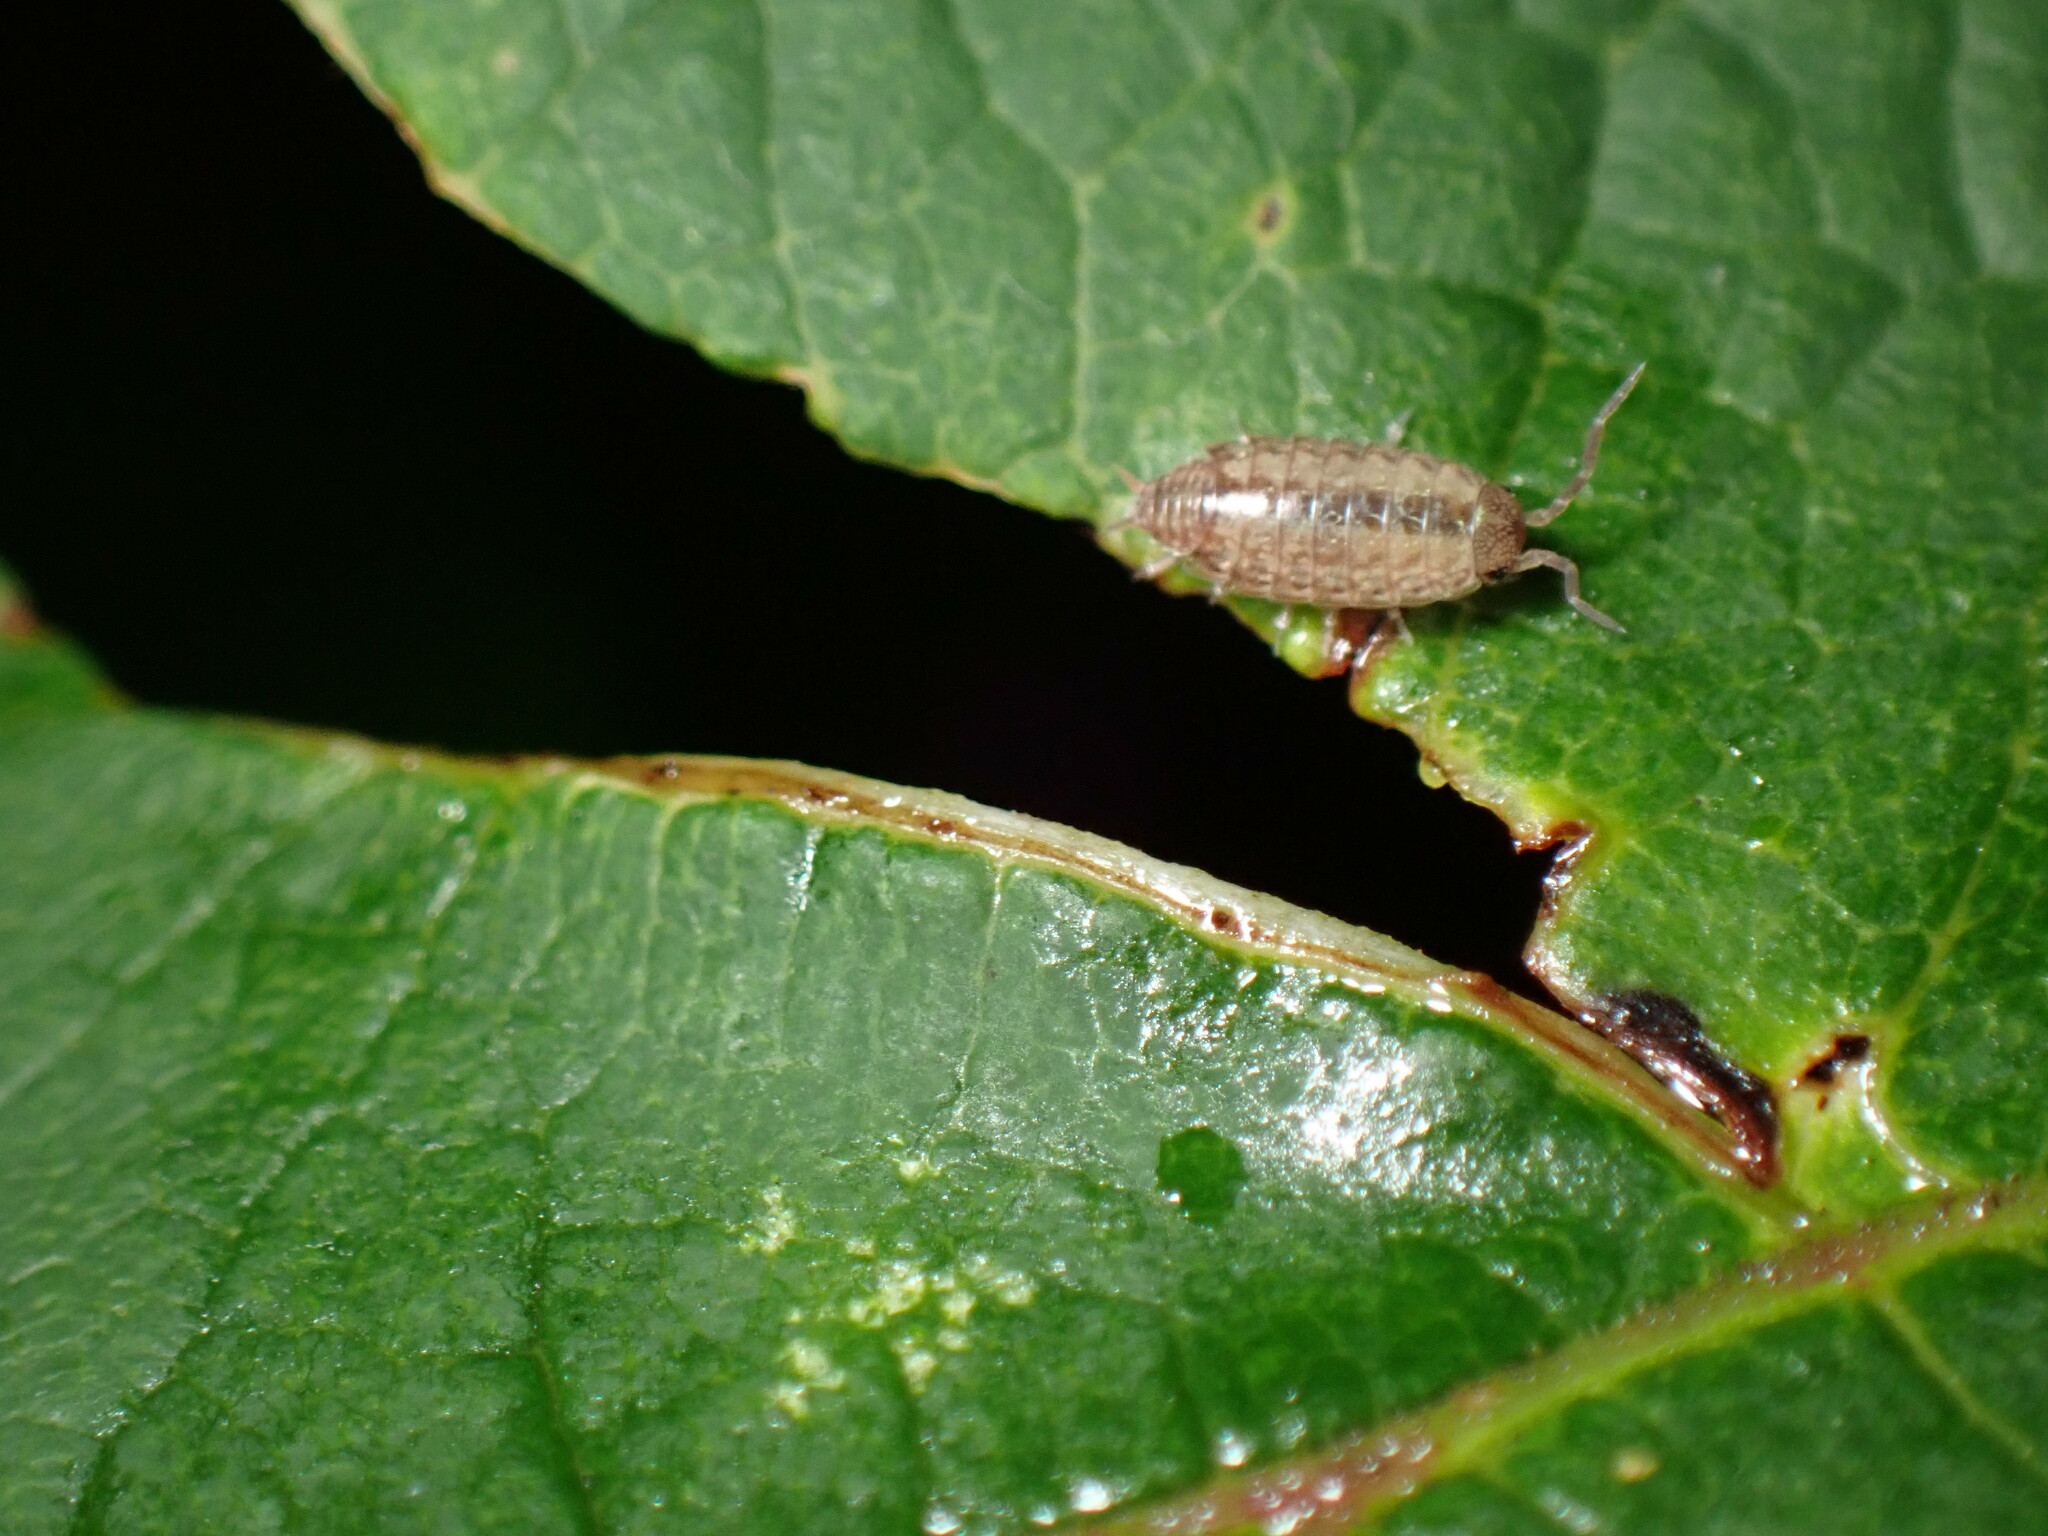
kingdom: Animalia
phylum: Arthropoda
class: Malacostraca
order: Isopoda
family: Philosciidae
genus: Philoscia
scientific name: Philoscia muscorum
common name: Common striped woodlouse
